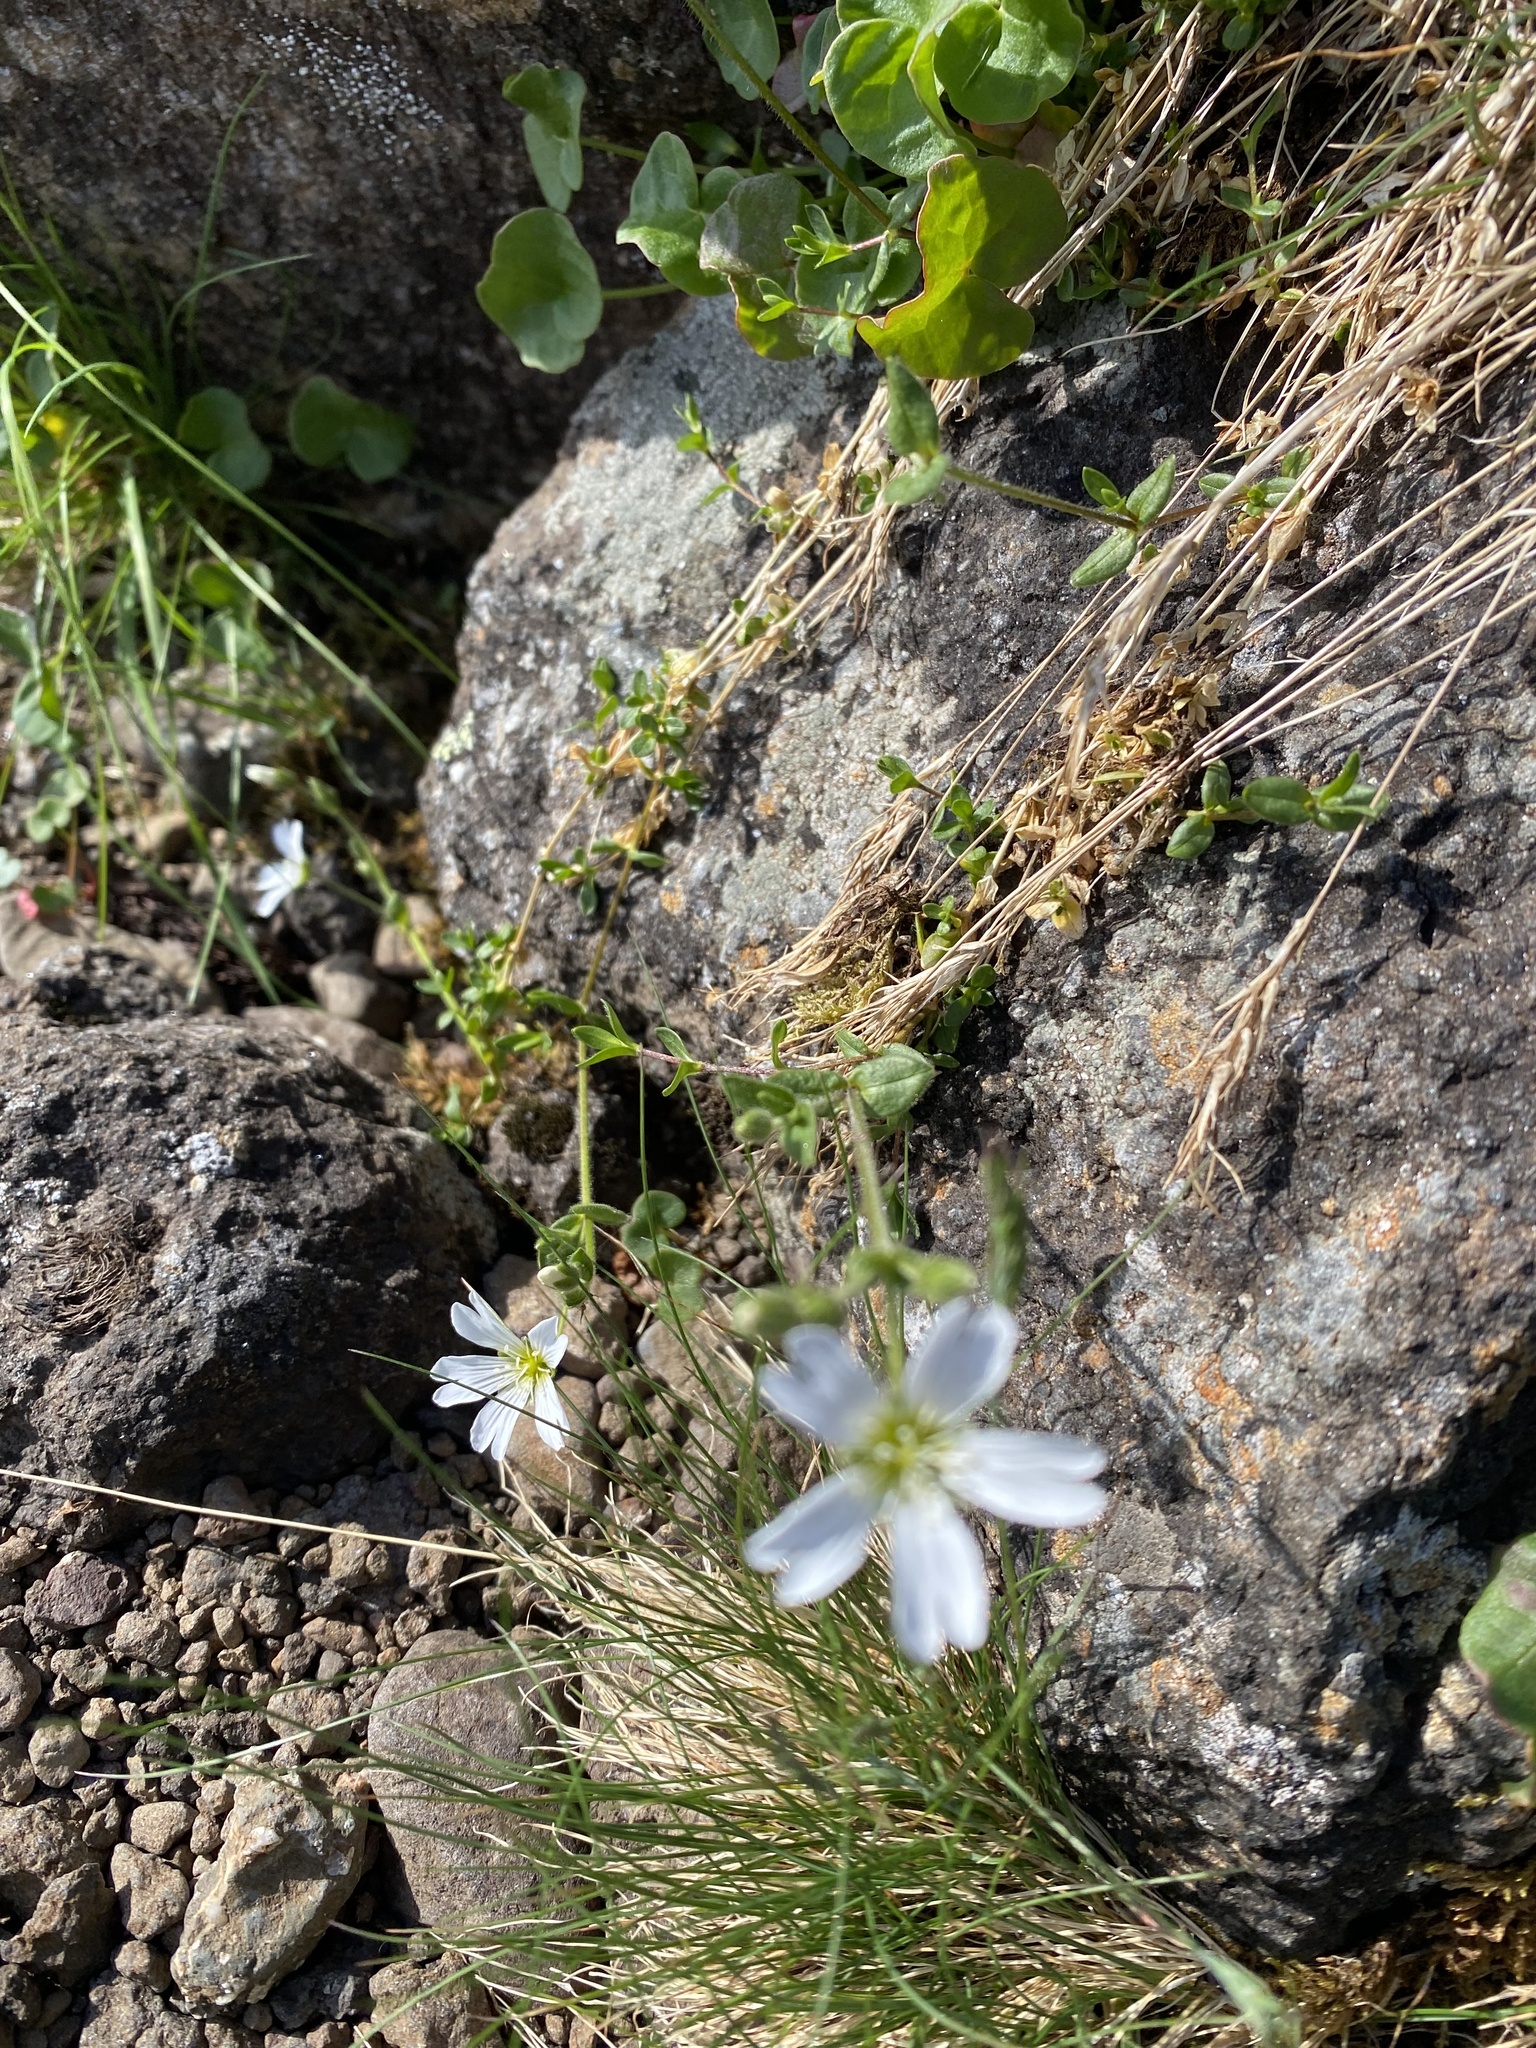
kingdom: Plantae
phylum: Tracheophyta
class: Magnoliopsida
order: Caryophyllales
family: Caryophyllaceae
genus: Cerastium
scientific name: Cerastium regelii
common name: Regel's chickweed
